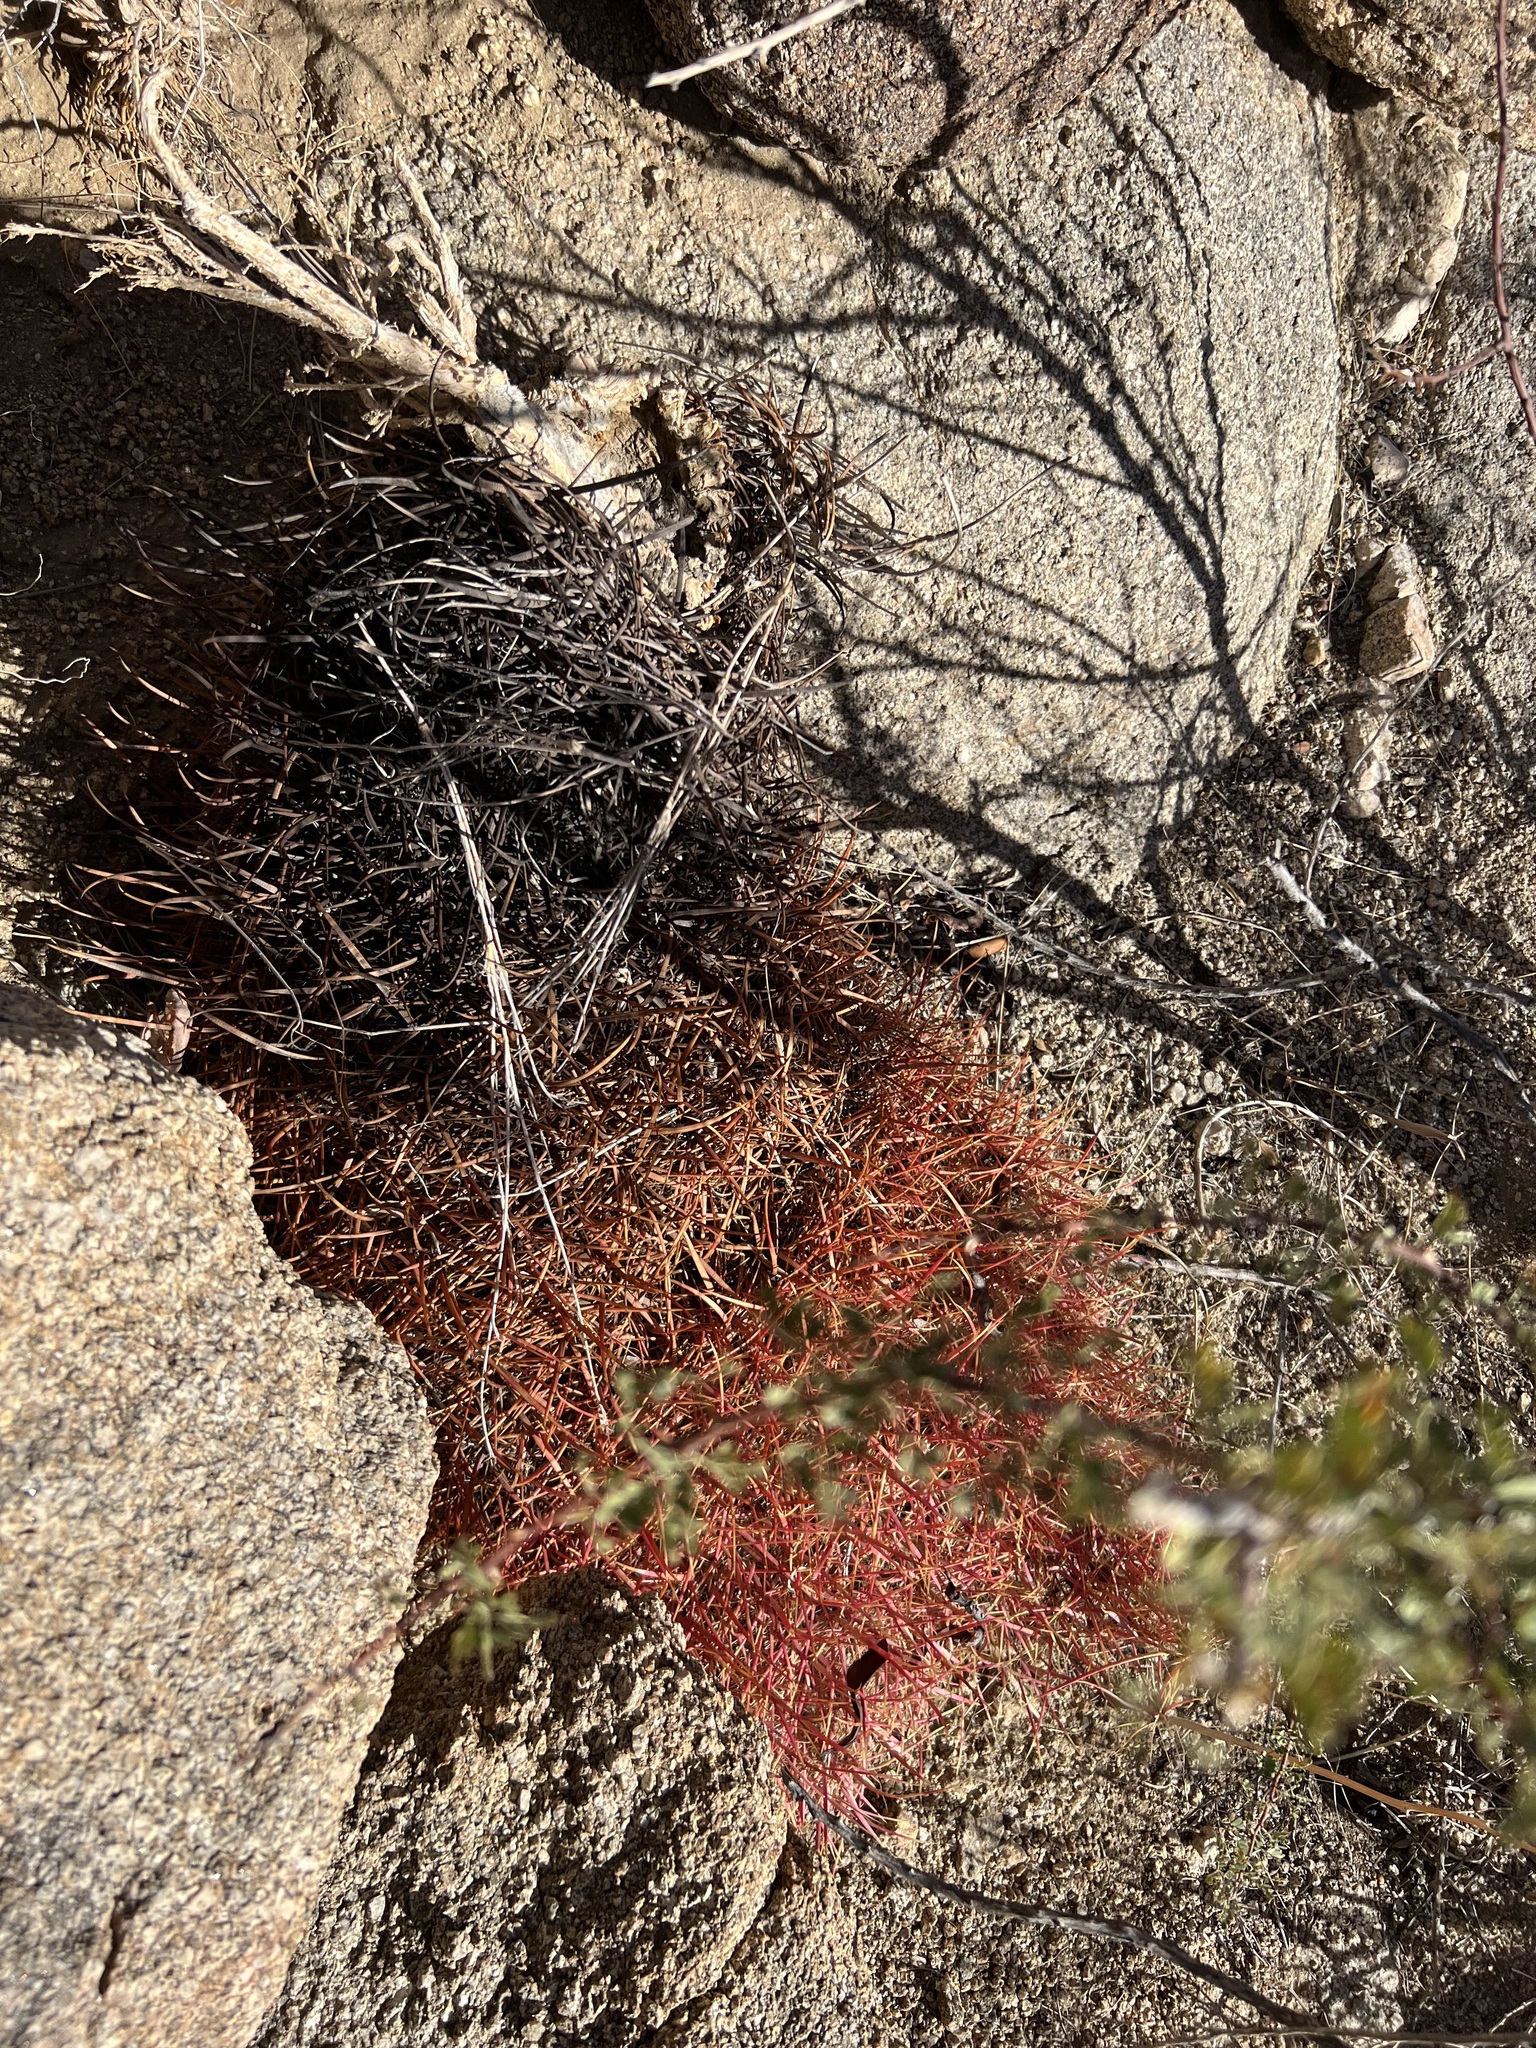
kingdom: Plantae
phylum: Tracheophyta
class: Magnoliopsida
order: Caryophyllales
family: Cactaceae
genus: Ferocactus
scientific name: Ferocactus cylindraceus
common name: California barrel cactus
